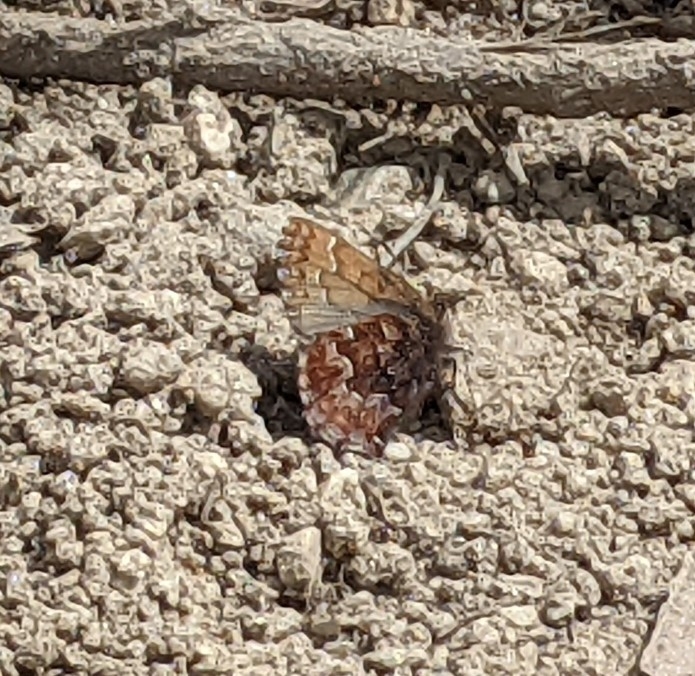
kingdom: Animalia
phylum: Arthropoda
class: Insecta
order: Lepidoptera
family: Lycaenidae
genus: Incisalia
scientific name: Incisalia niphon
